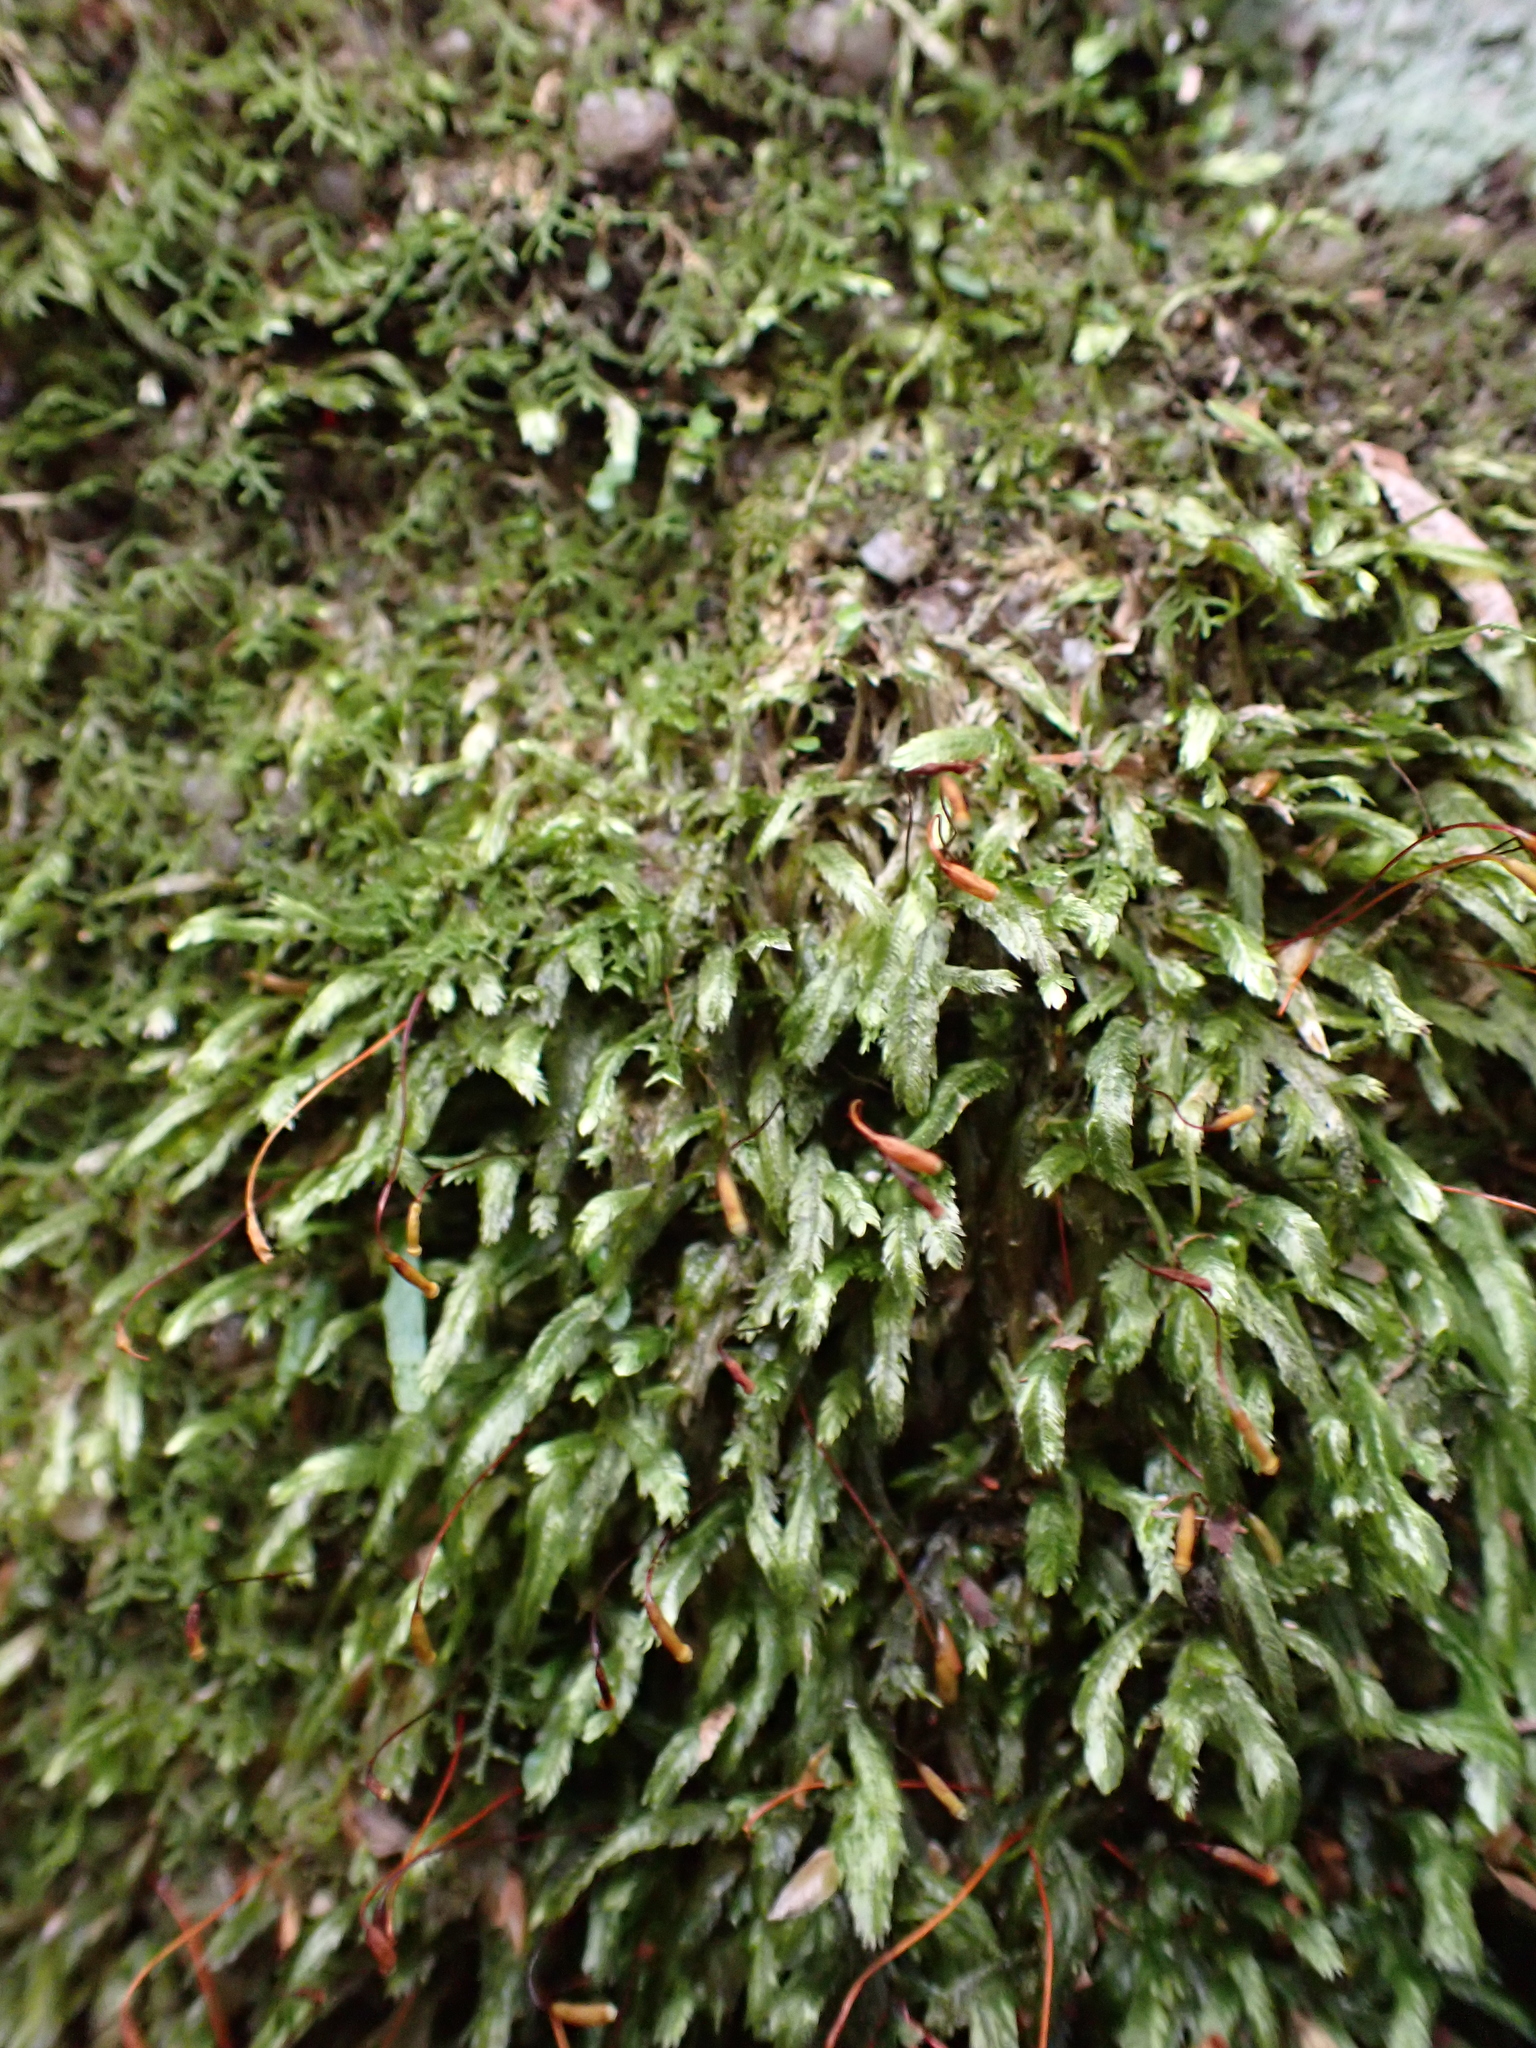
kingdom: Plantae
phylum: Bryophyta
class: Bryopsida
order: Hypnales
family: Catagoniaceae
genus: Catagonium
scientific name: Catagonium nitens
